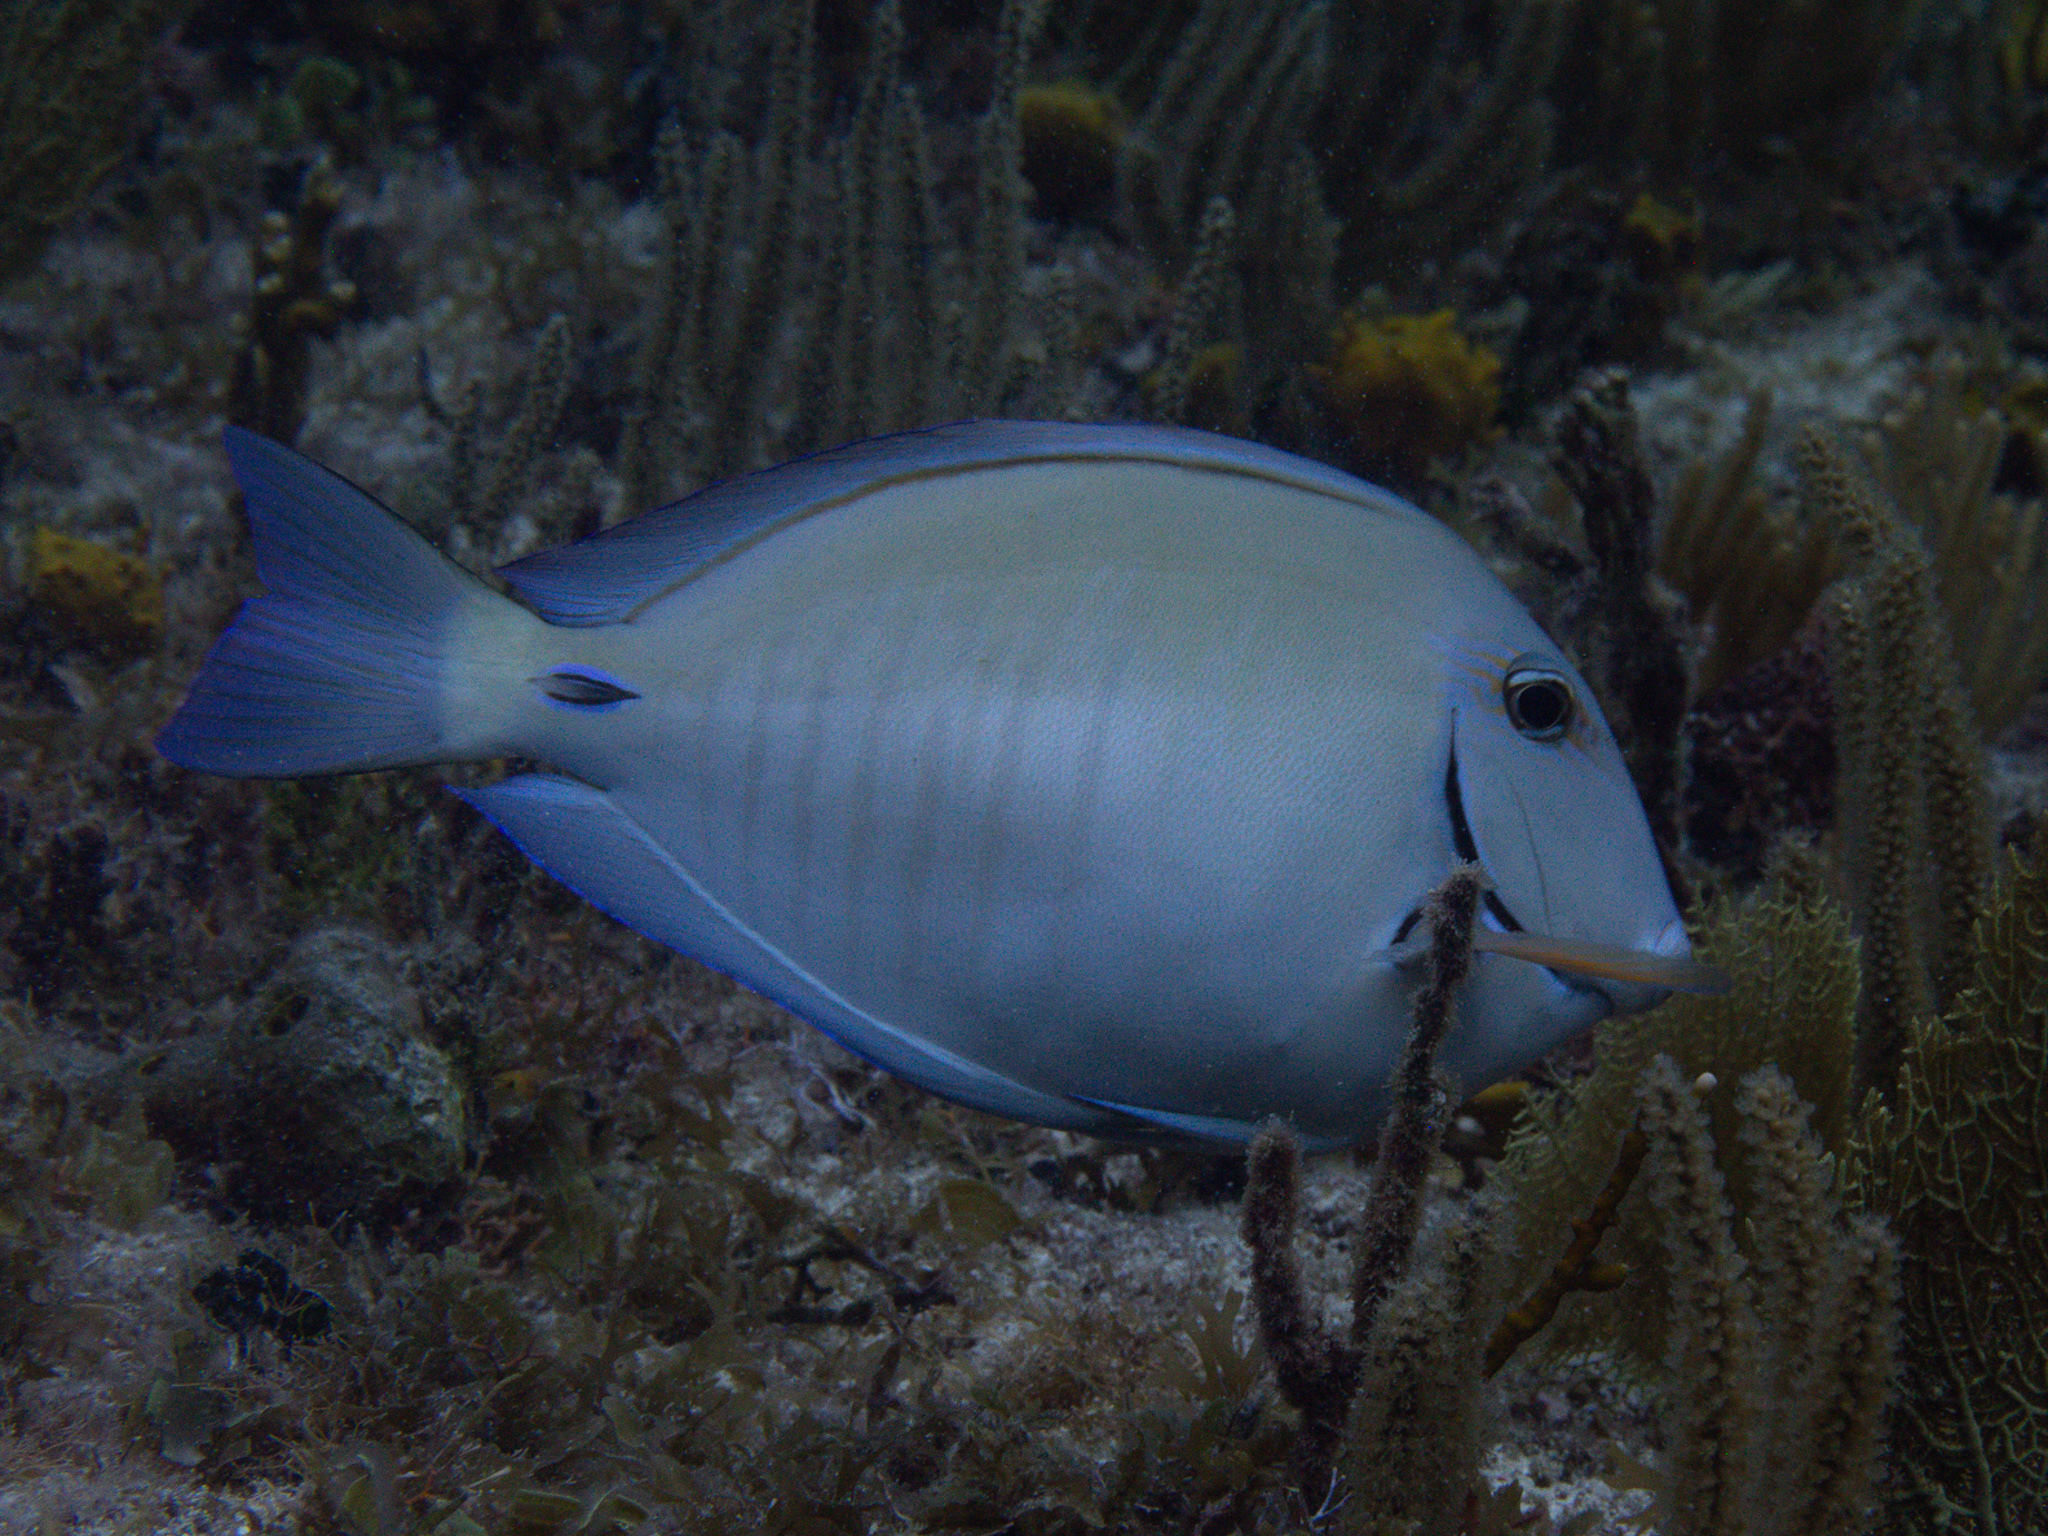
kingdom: Animalia
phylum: Chordata
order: Perciformes
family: Acanthuridae
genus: Acanthurus
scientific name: Acanthurus chirurgus
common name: Doctorfish
